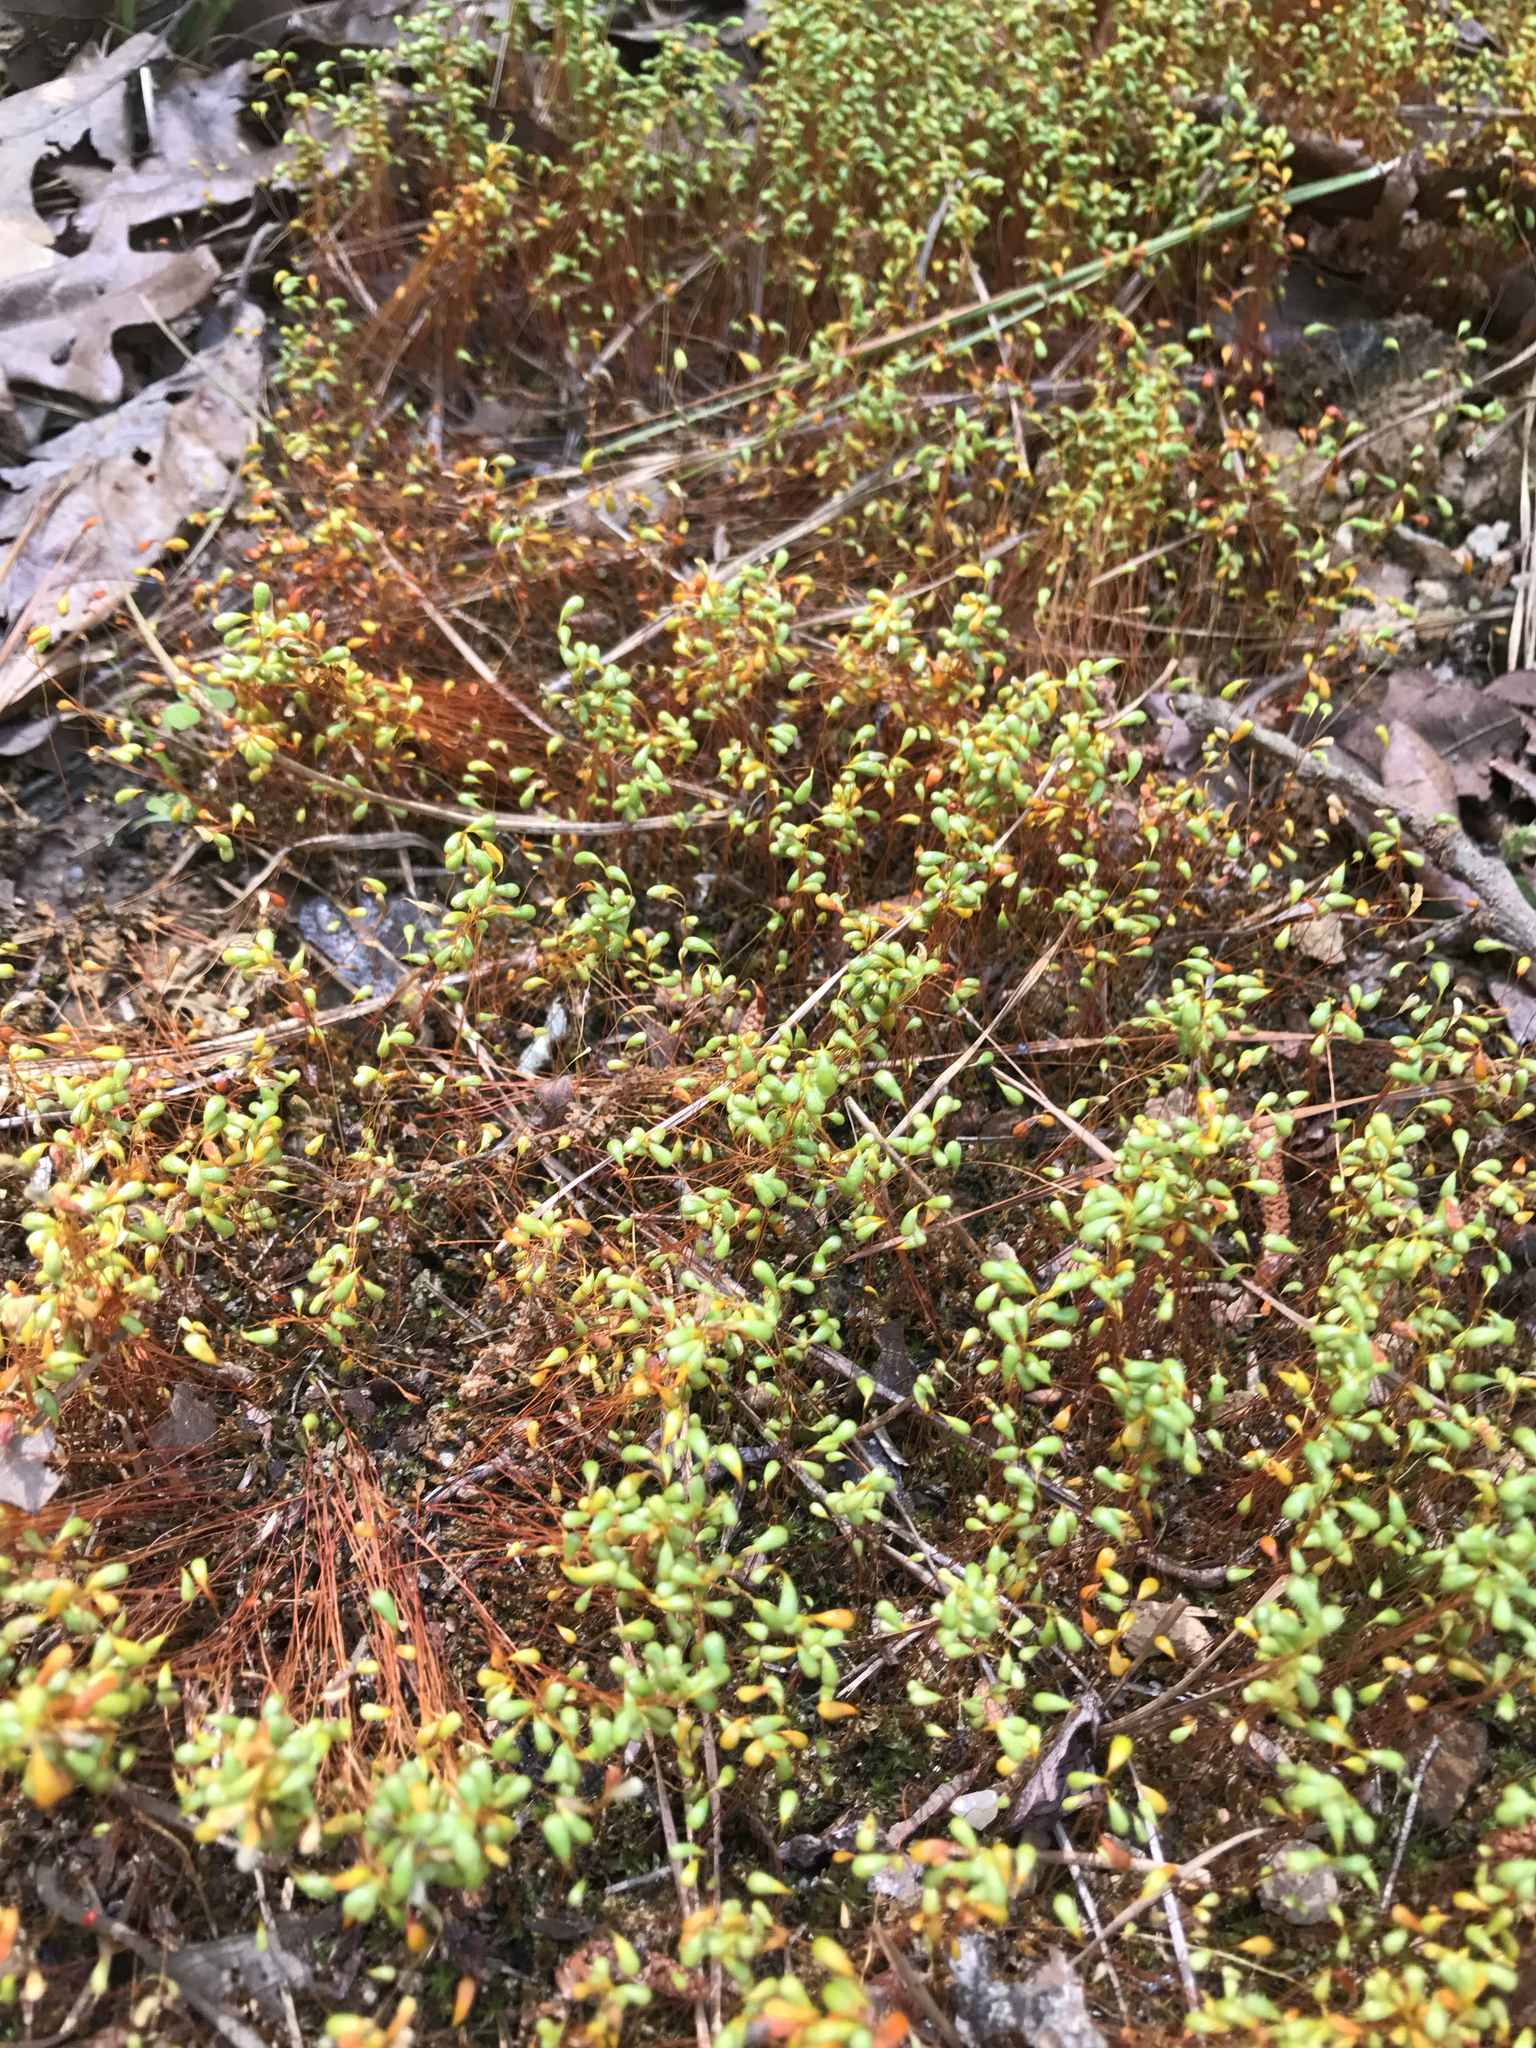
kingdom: Plantae
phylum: Bryophyta
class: Bryopsida
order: Funariales
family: Funariaceae
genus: Funaria
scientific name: Funaria hygrometrica
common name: Common cord moss
